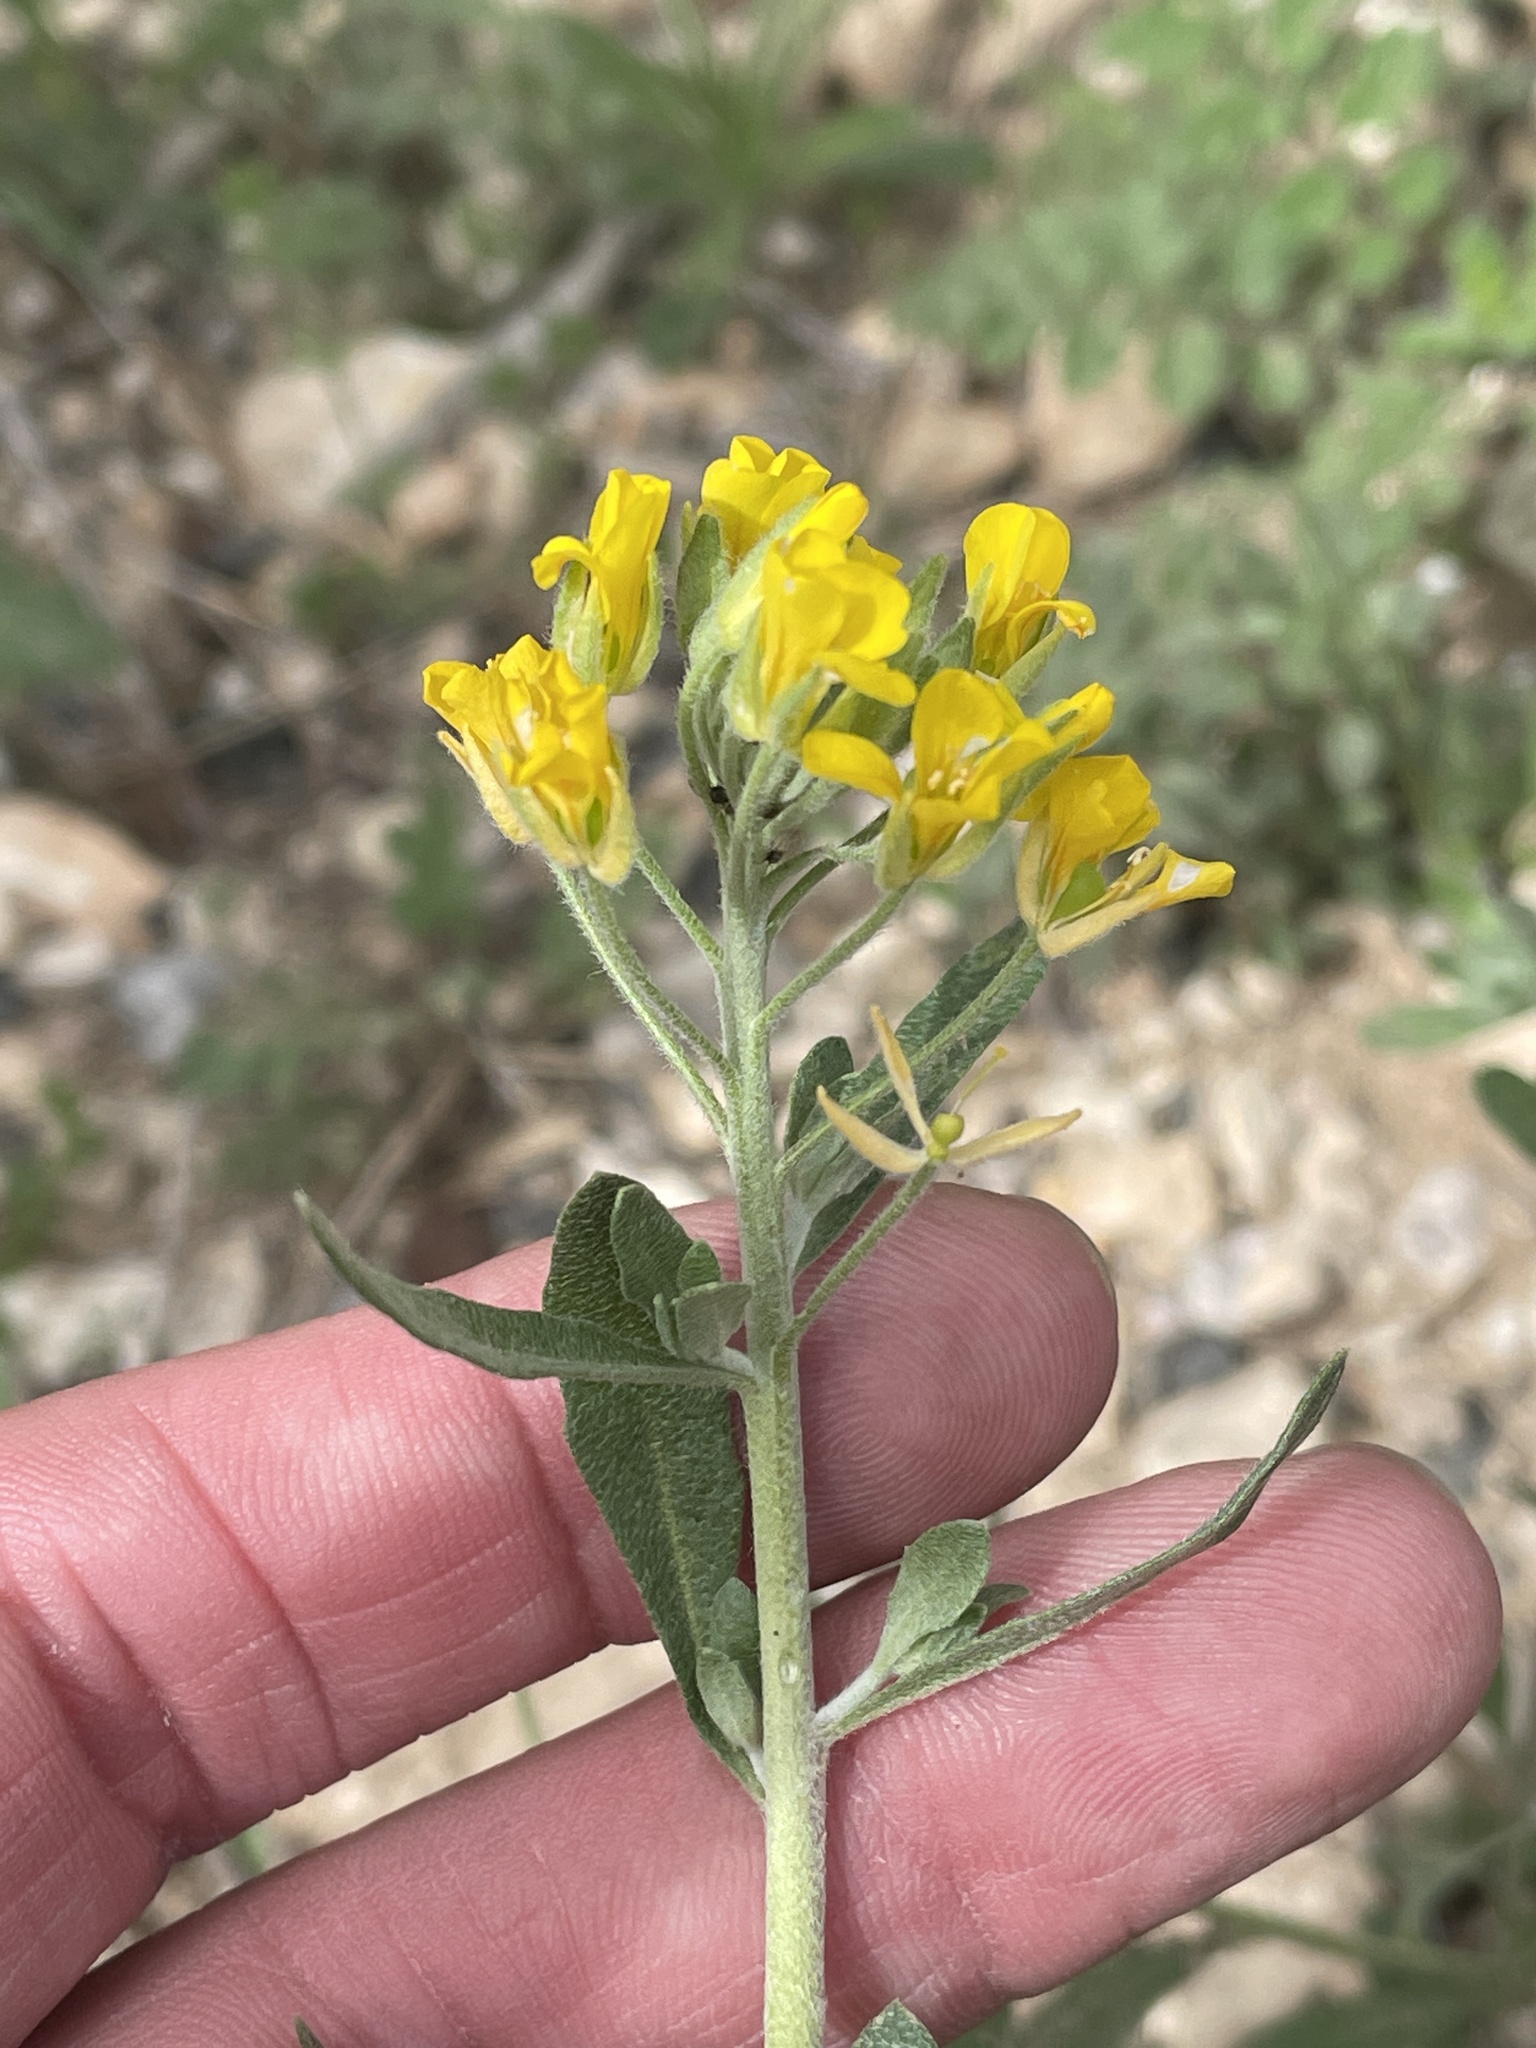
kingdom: Plantae
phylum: Tracheophyta
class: Magnoliopsida
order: Brassicales
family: Brassicaceae
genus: Physaria
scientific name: Physaria densiflora
